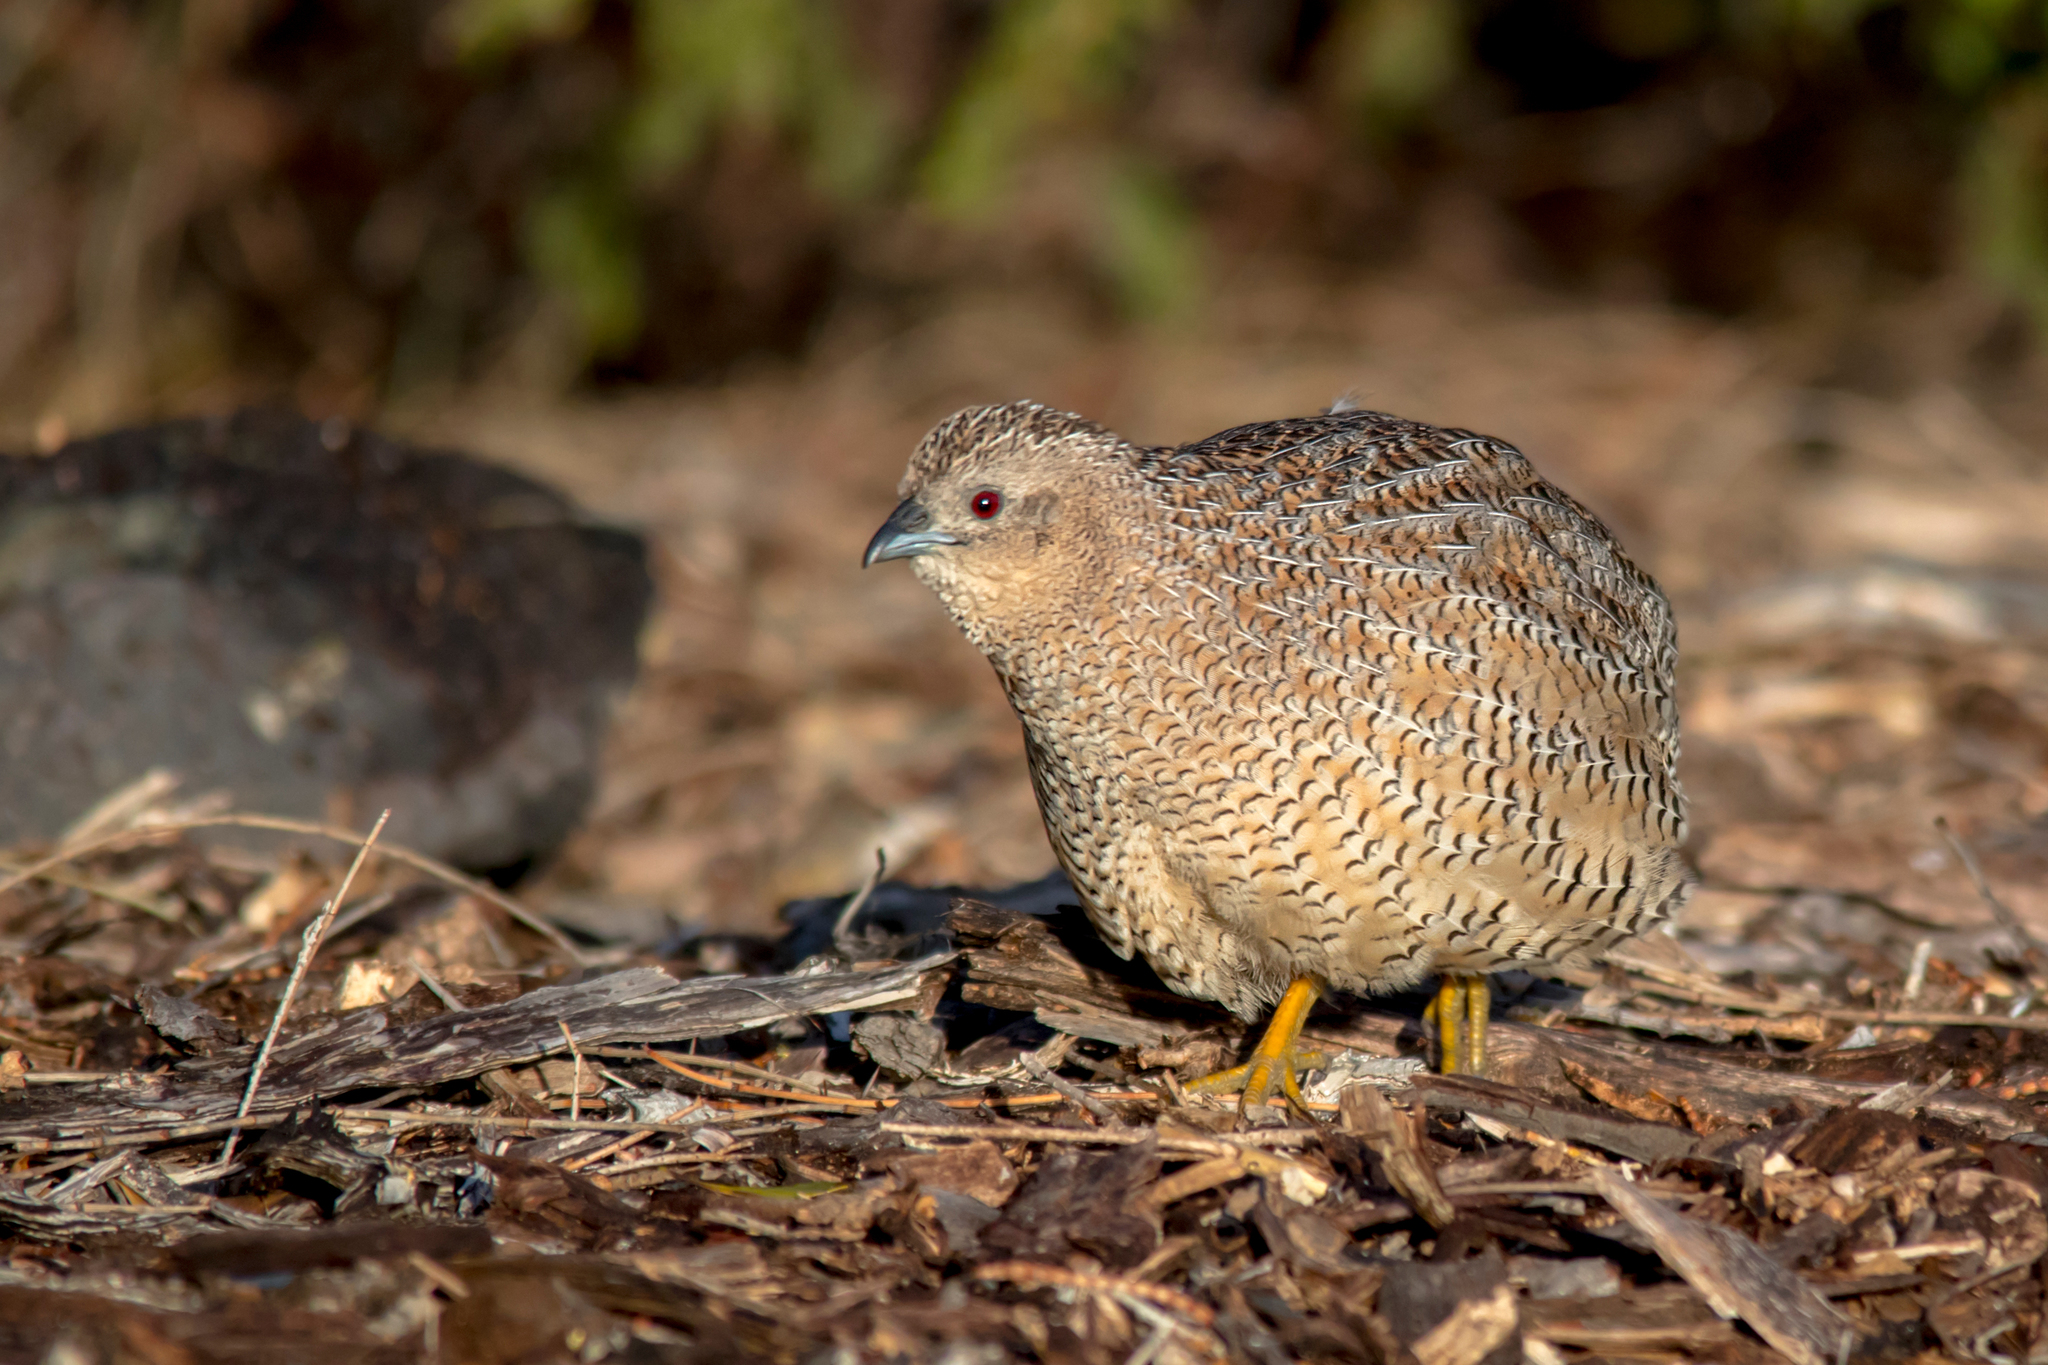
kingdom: Animalia
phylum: Chordata
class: Aves
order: Galliformes
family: Phasianidae
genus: Synoicus
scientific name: Synoicus ypsilophorus
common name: Brown quail
